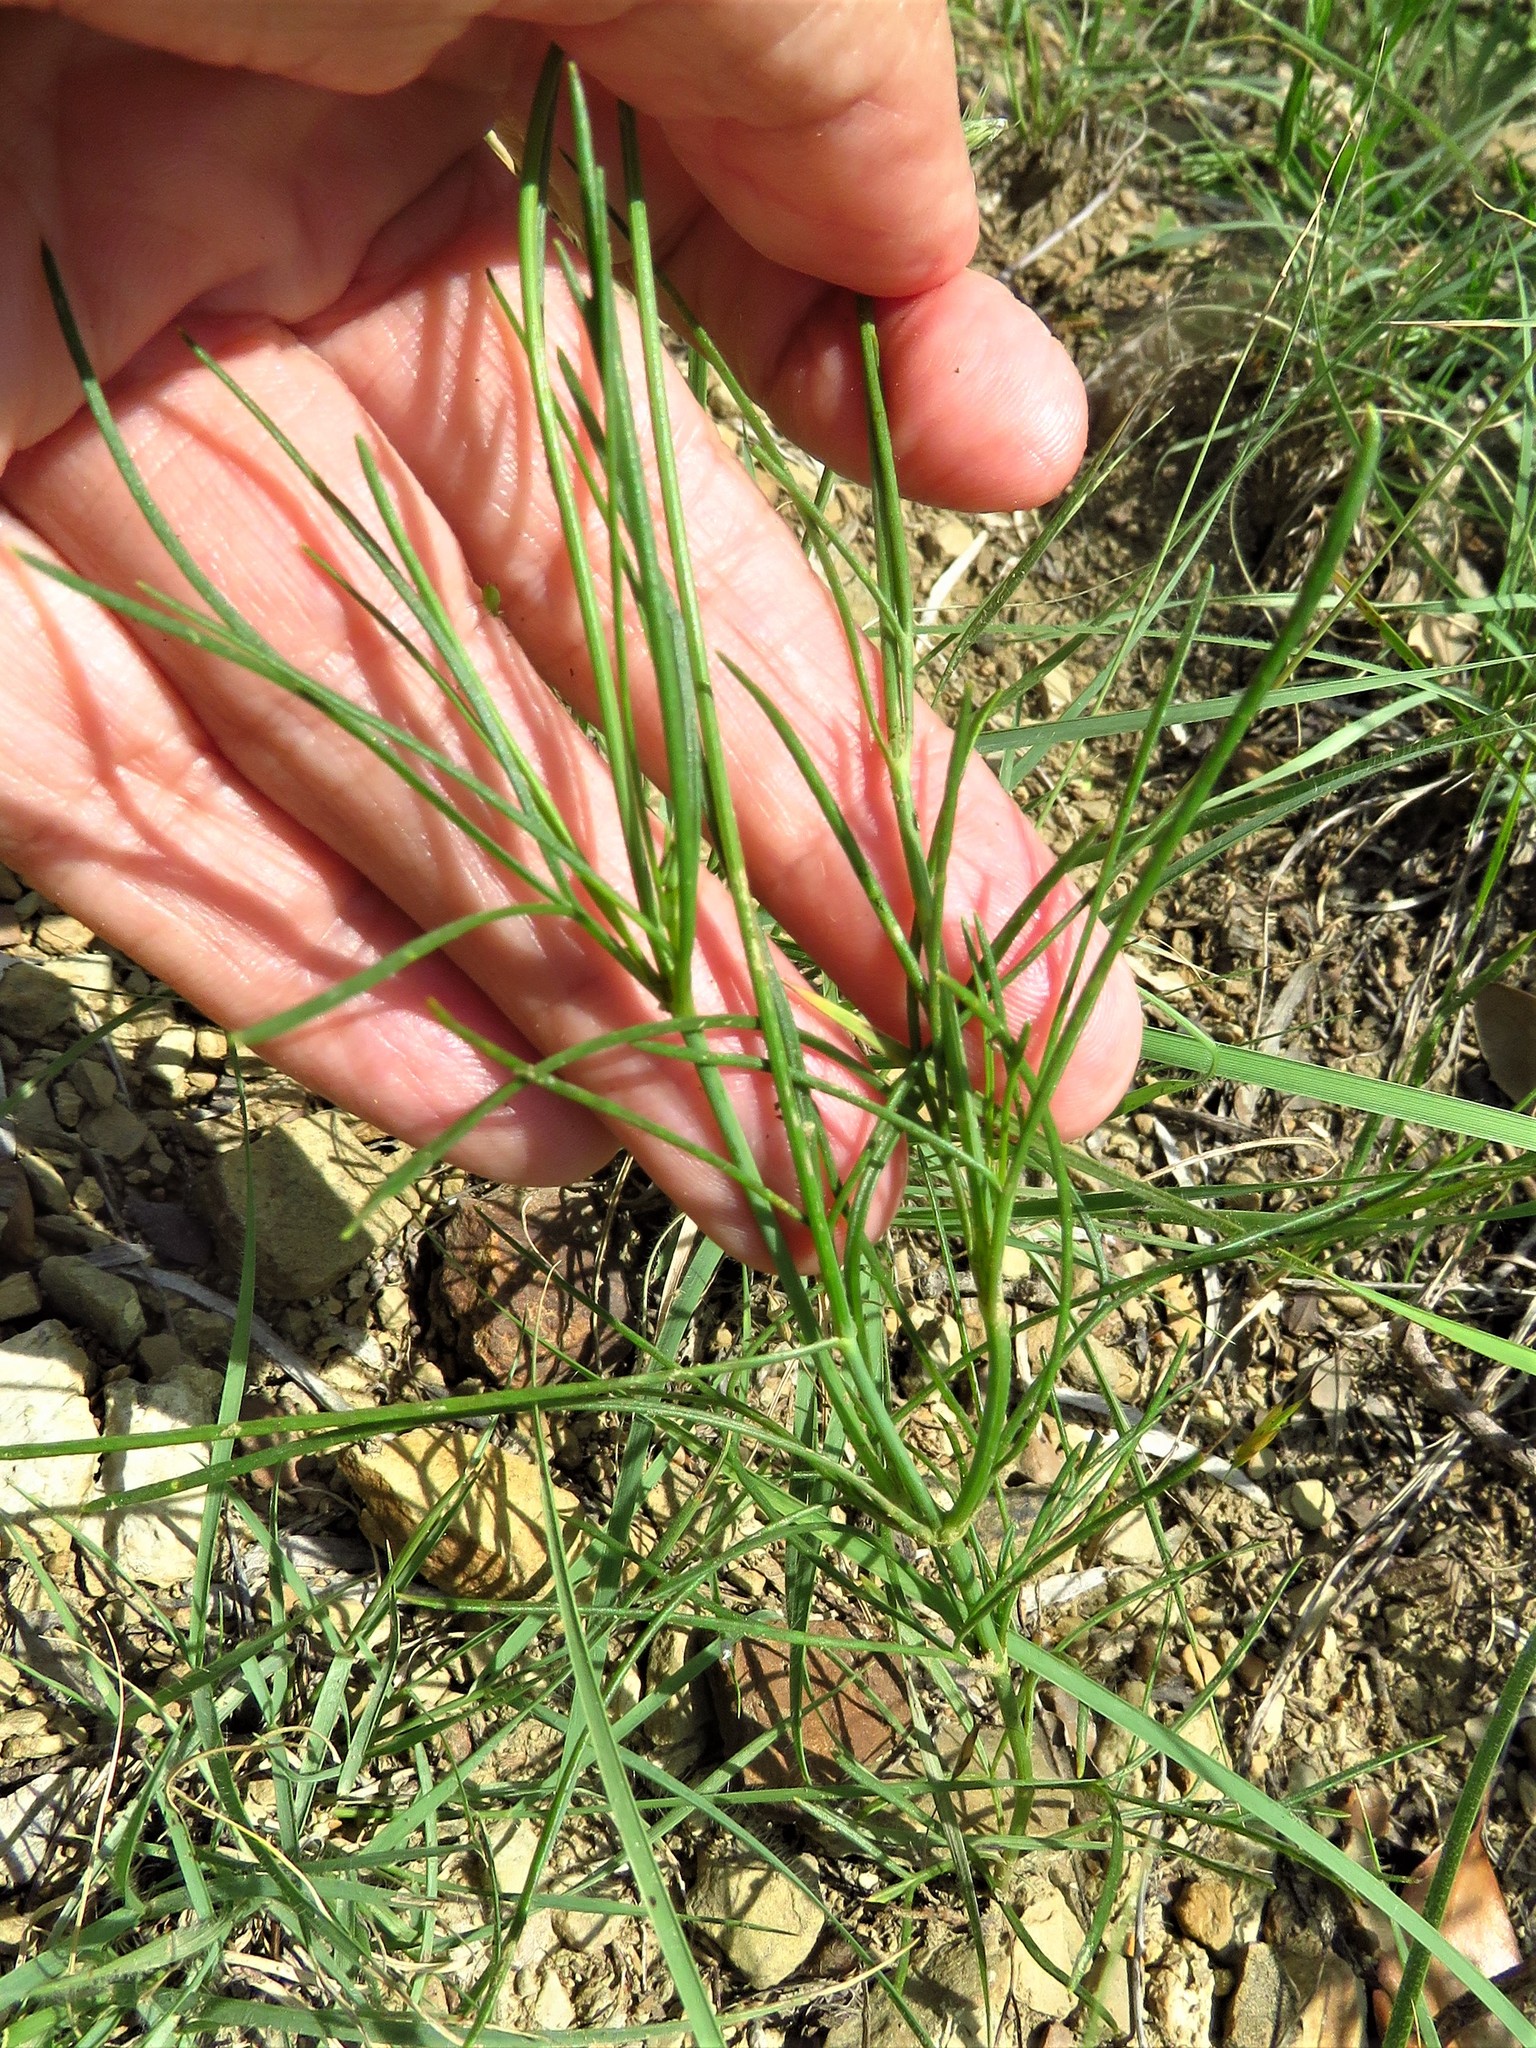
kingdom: Plantae
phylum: Tracheophyta
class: Magnoliopsida
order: Asterales
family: Asteraceae
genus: Thelesperma
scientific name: Thelesperma filifolium
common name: Stiff greenthread
